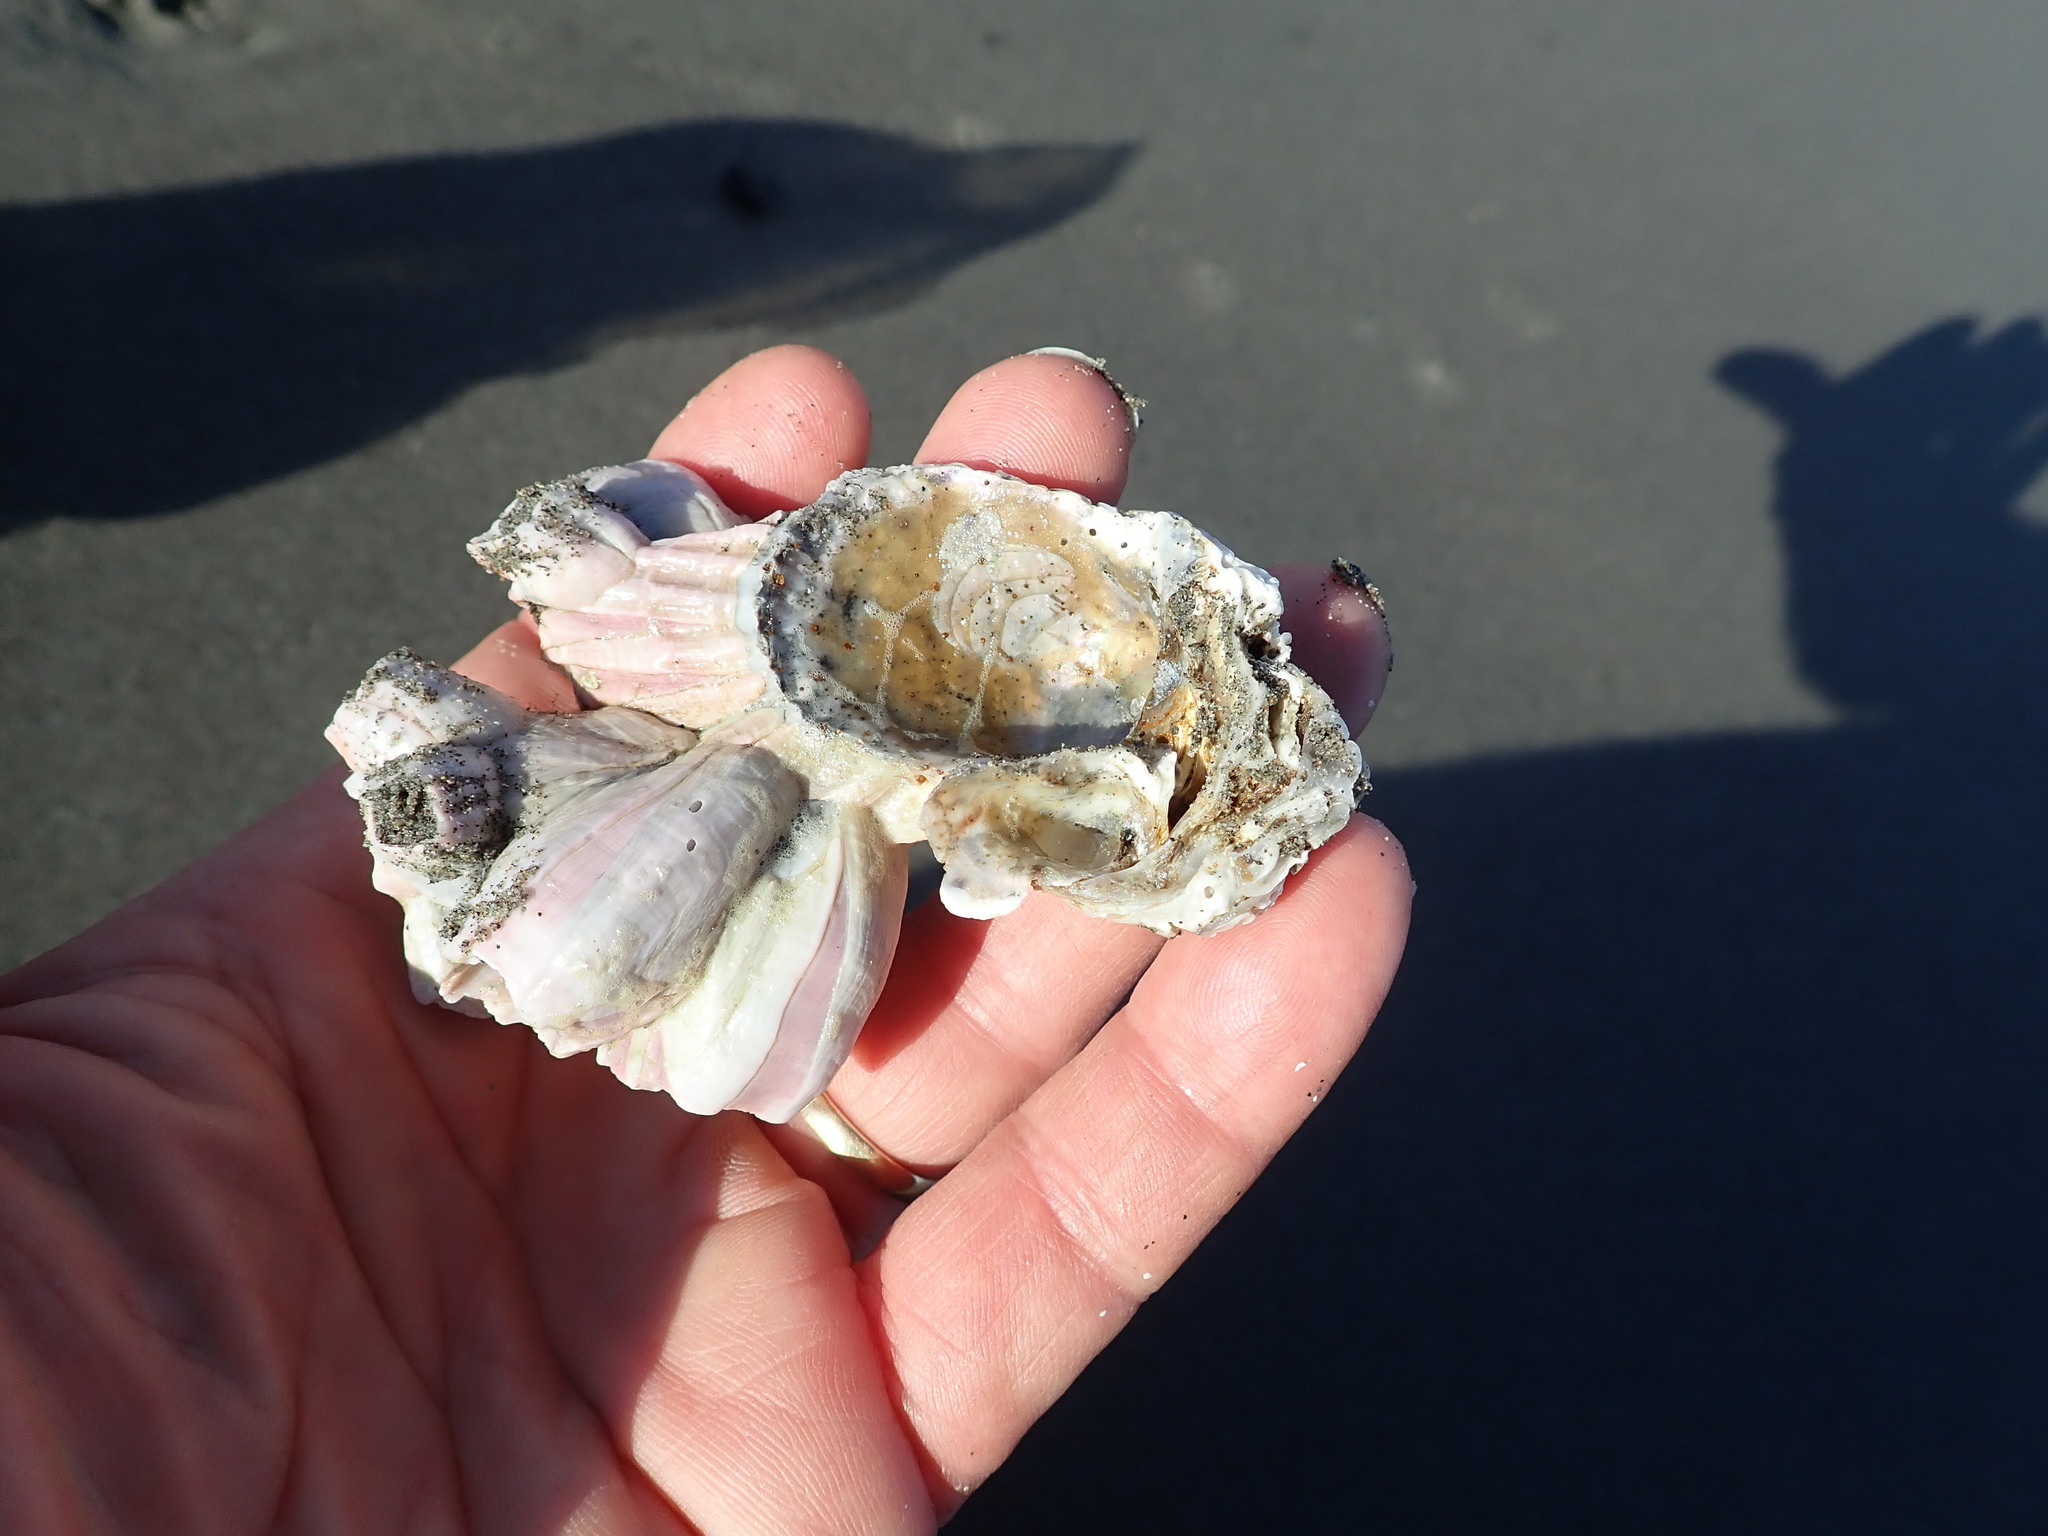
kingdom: Animalia
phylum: Arthropoda
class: Maxillopoda
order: Sessilia
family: Balanidae
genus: Notomegabalanus
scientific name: Notomegabalanus decorus
